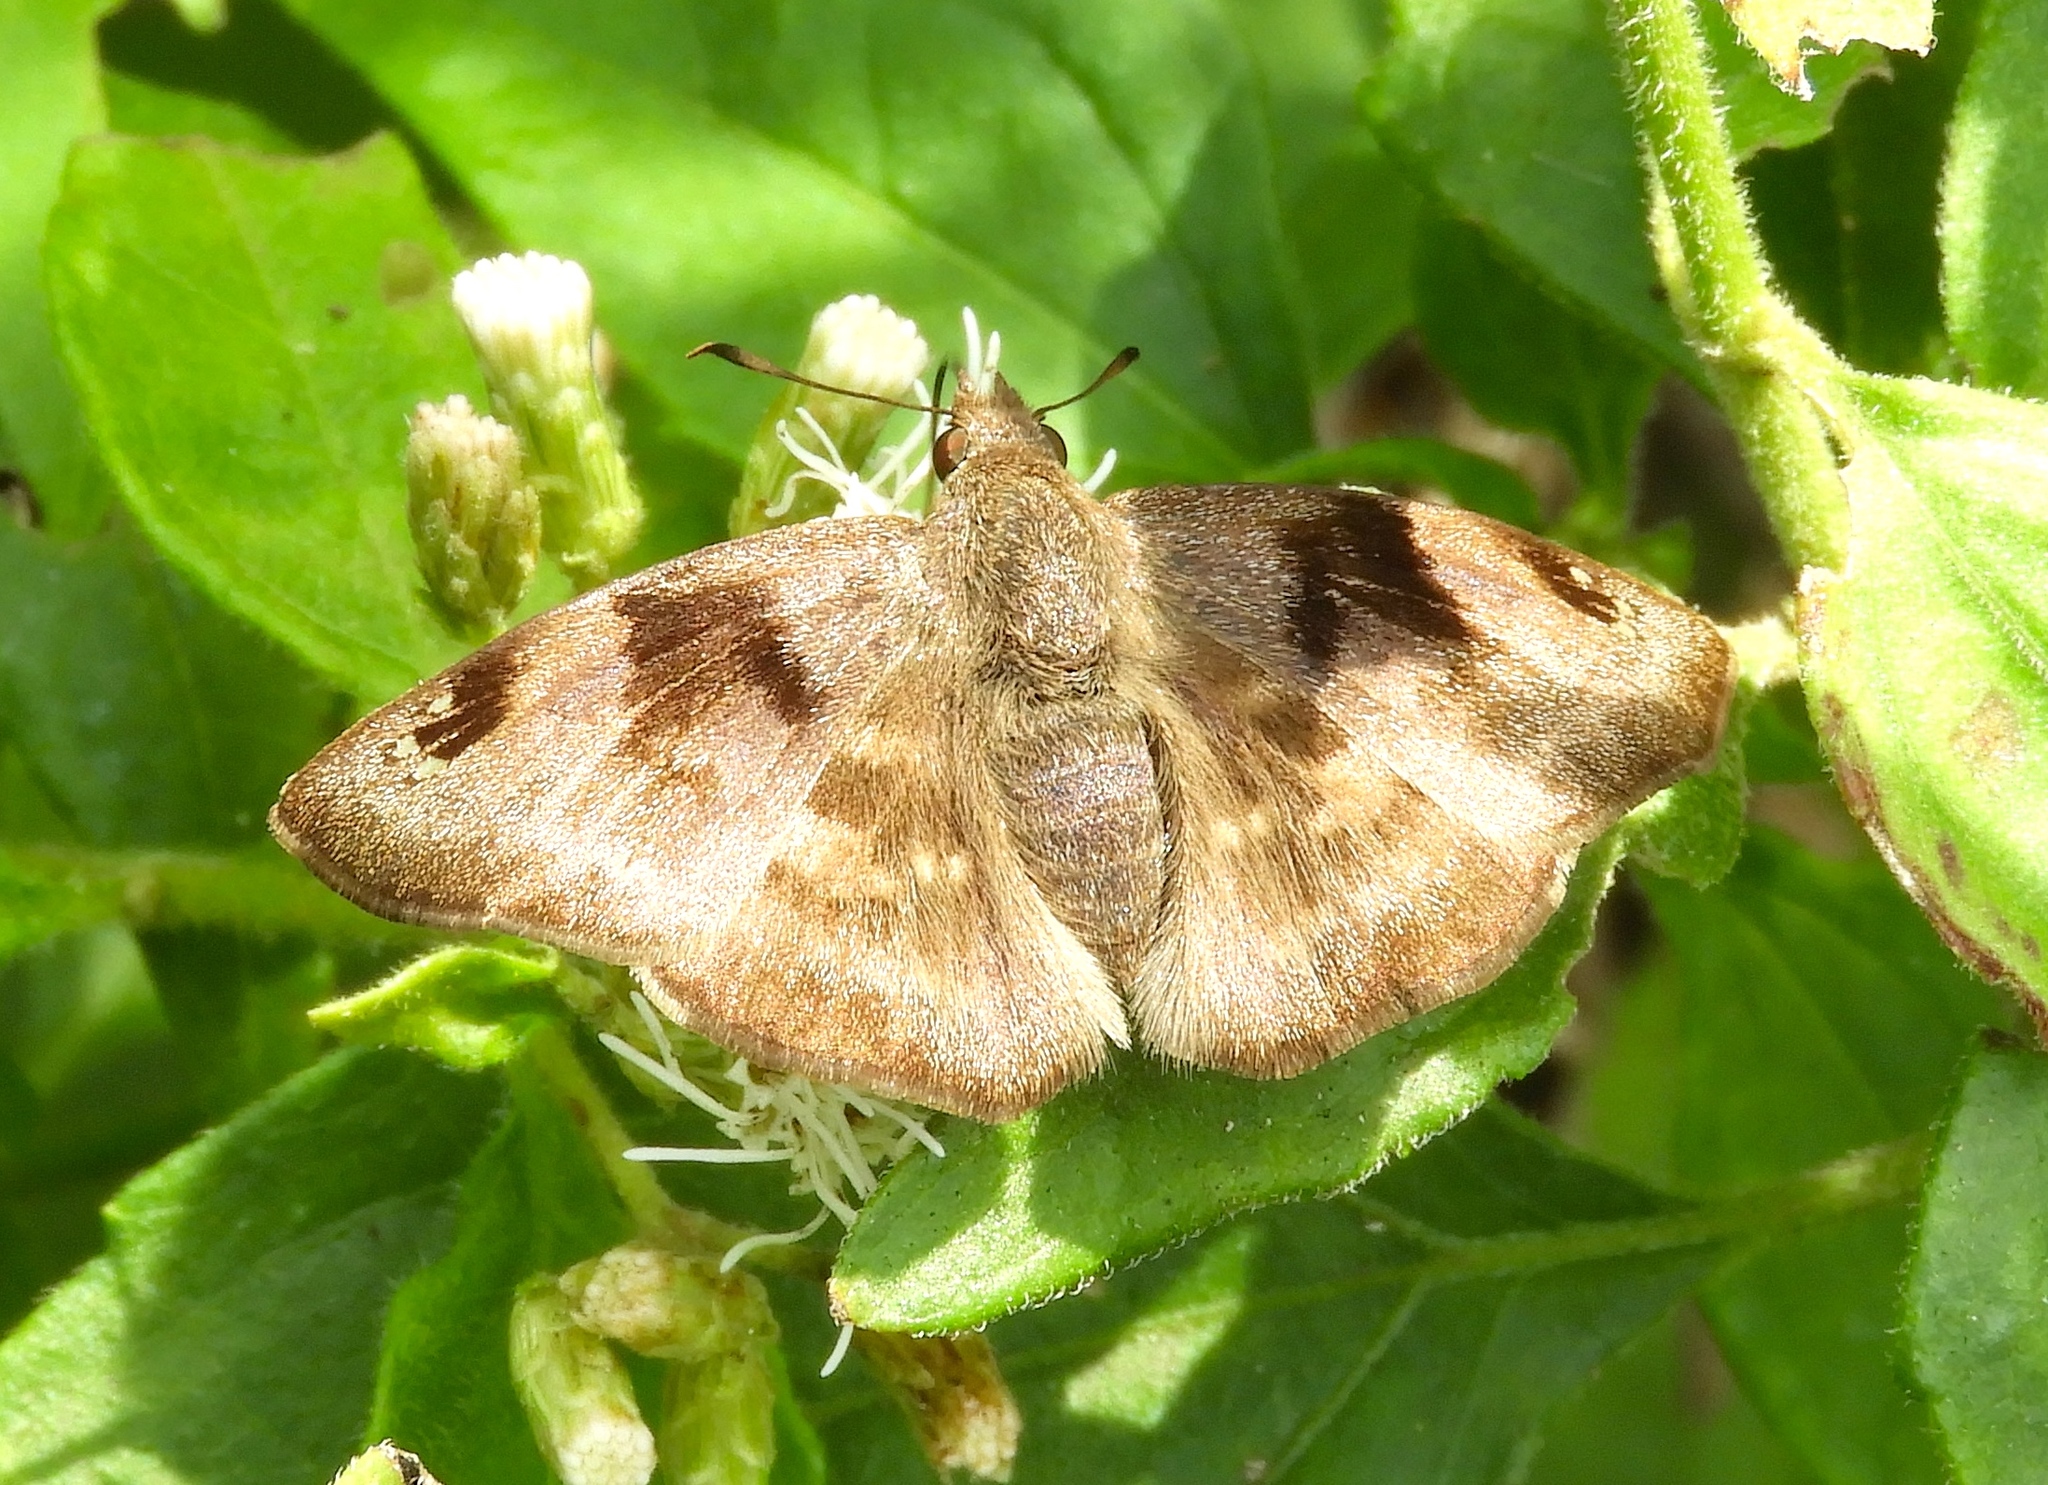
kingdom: Animalia
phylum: Arthropoda
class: Insecta
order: Lepidoptera
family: Hesperiidae
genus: Arteurotia
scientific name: Arteurotia tractipennis
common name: Starred skipper
